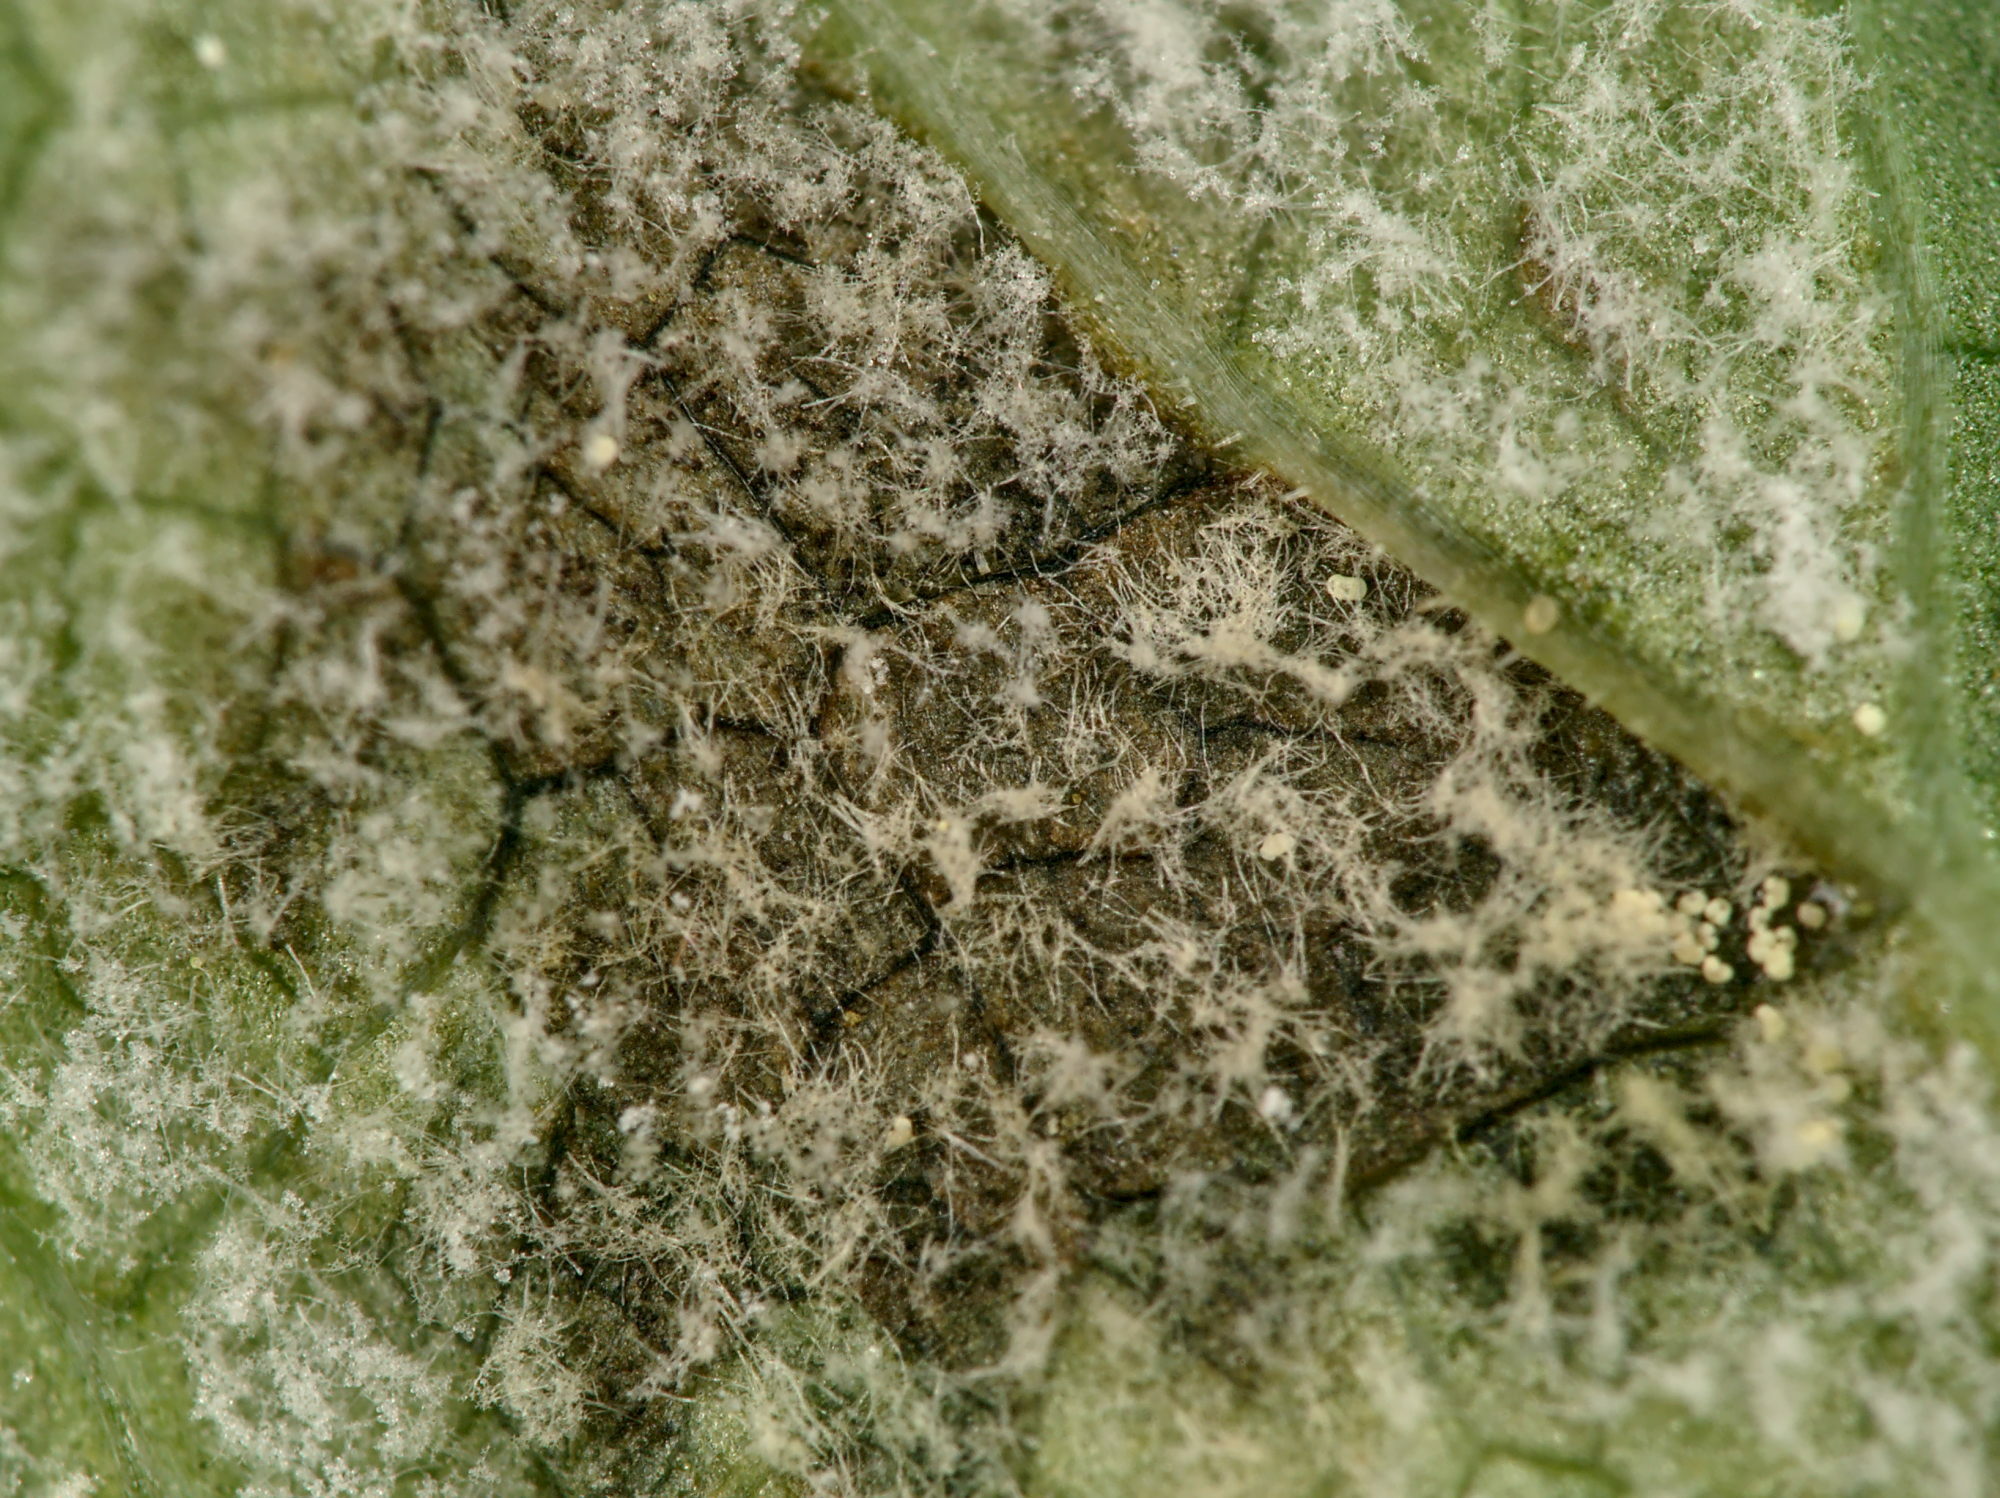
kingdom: Chromista
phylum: Oomycota
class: Peronosporea
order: Peronosporales
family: Peronosporaceae
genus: Peronospora
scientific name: Peronospora crustosa
